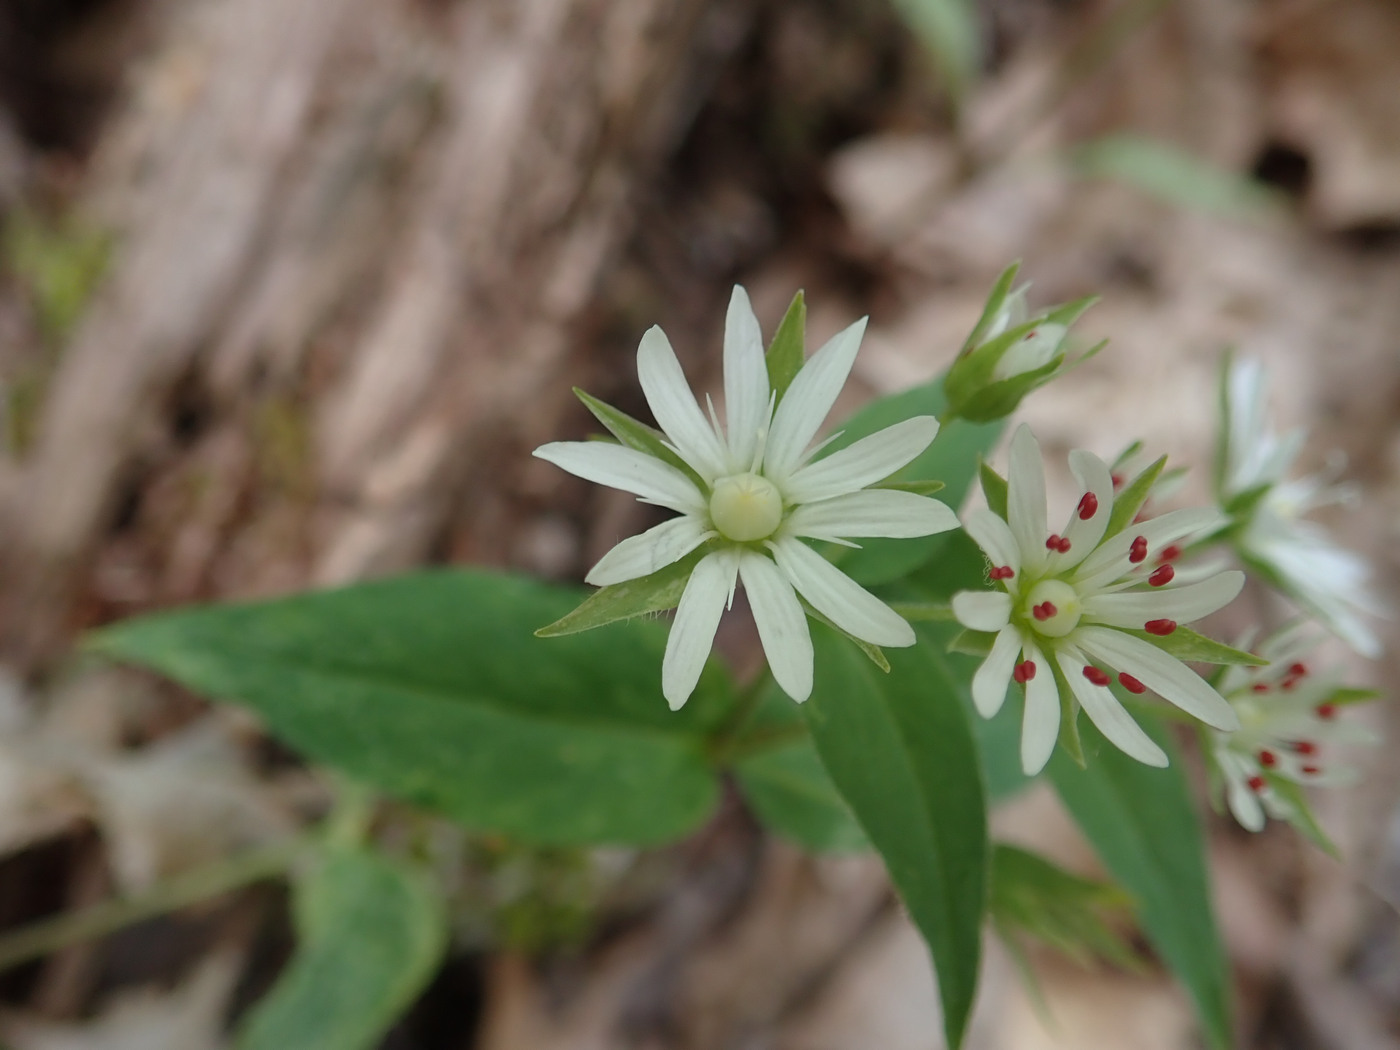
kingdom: Plantae
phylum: Tracheophyta
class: Magnoliopsida
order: Caryophyllales
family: Caryophyllaceae
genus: Stellaria
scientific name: Stellaria corei
